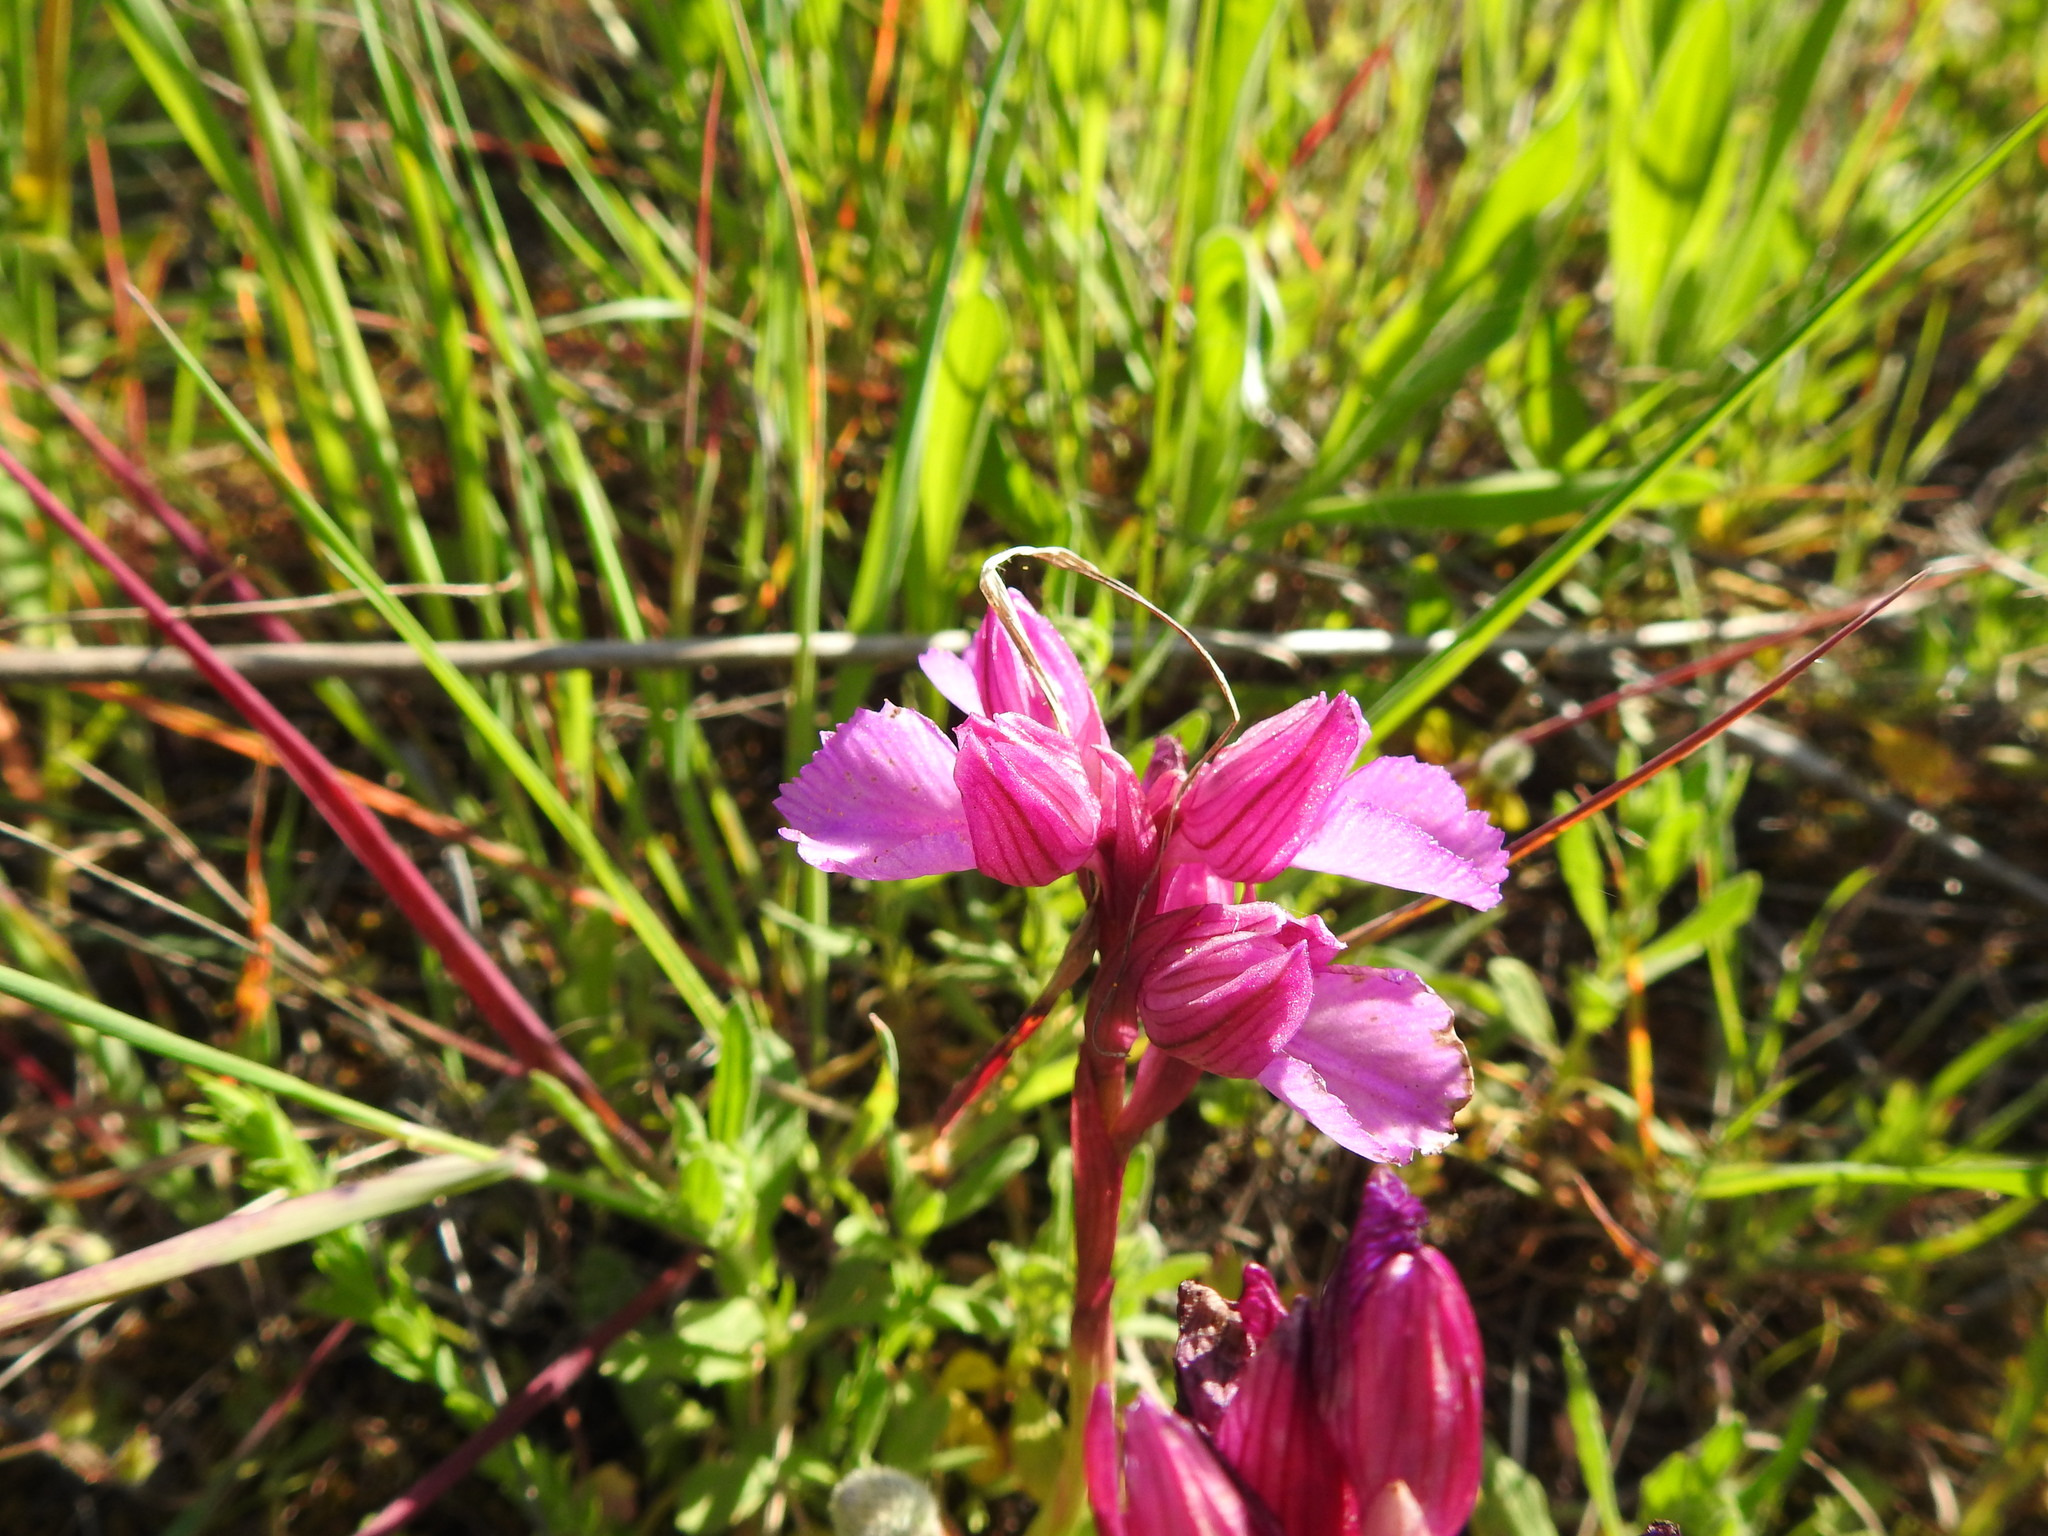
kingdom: Plantae
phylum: Tracheophyta
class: Liliopsida
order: Asparagales
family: Orchidaceae
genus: Anacamptis
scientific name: Anacamptis papilionacea
